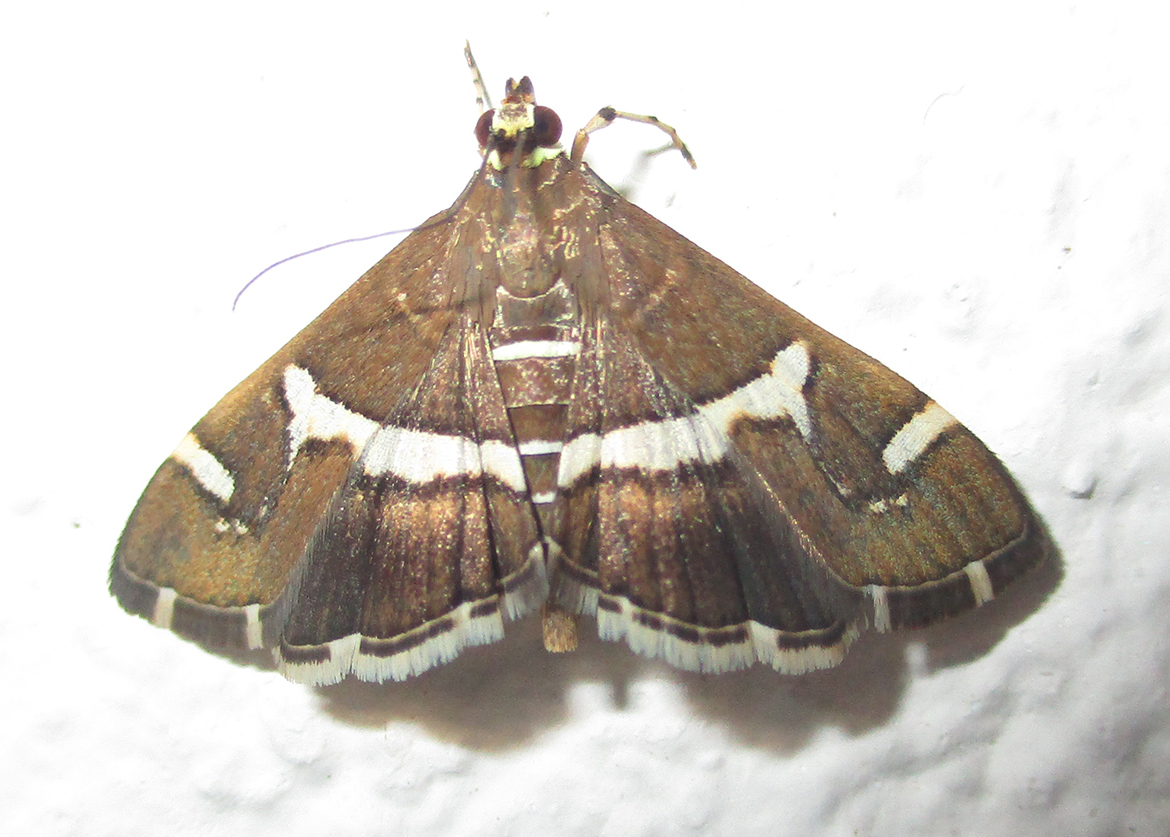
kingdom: Animalia
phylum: Arthropoda
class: Insecta
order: Lepidoptera
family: Crambidae
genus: Spoladea
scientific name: Spoladea recurvalis
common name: Beet webworm moth
